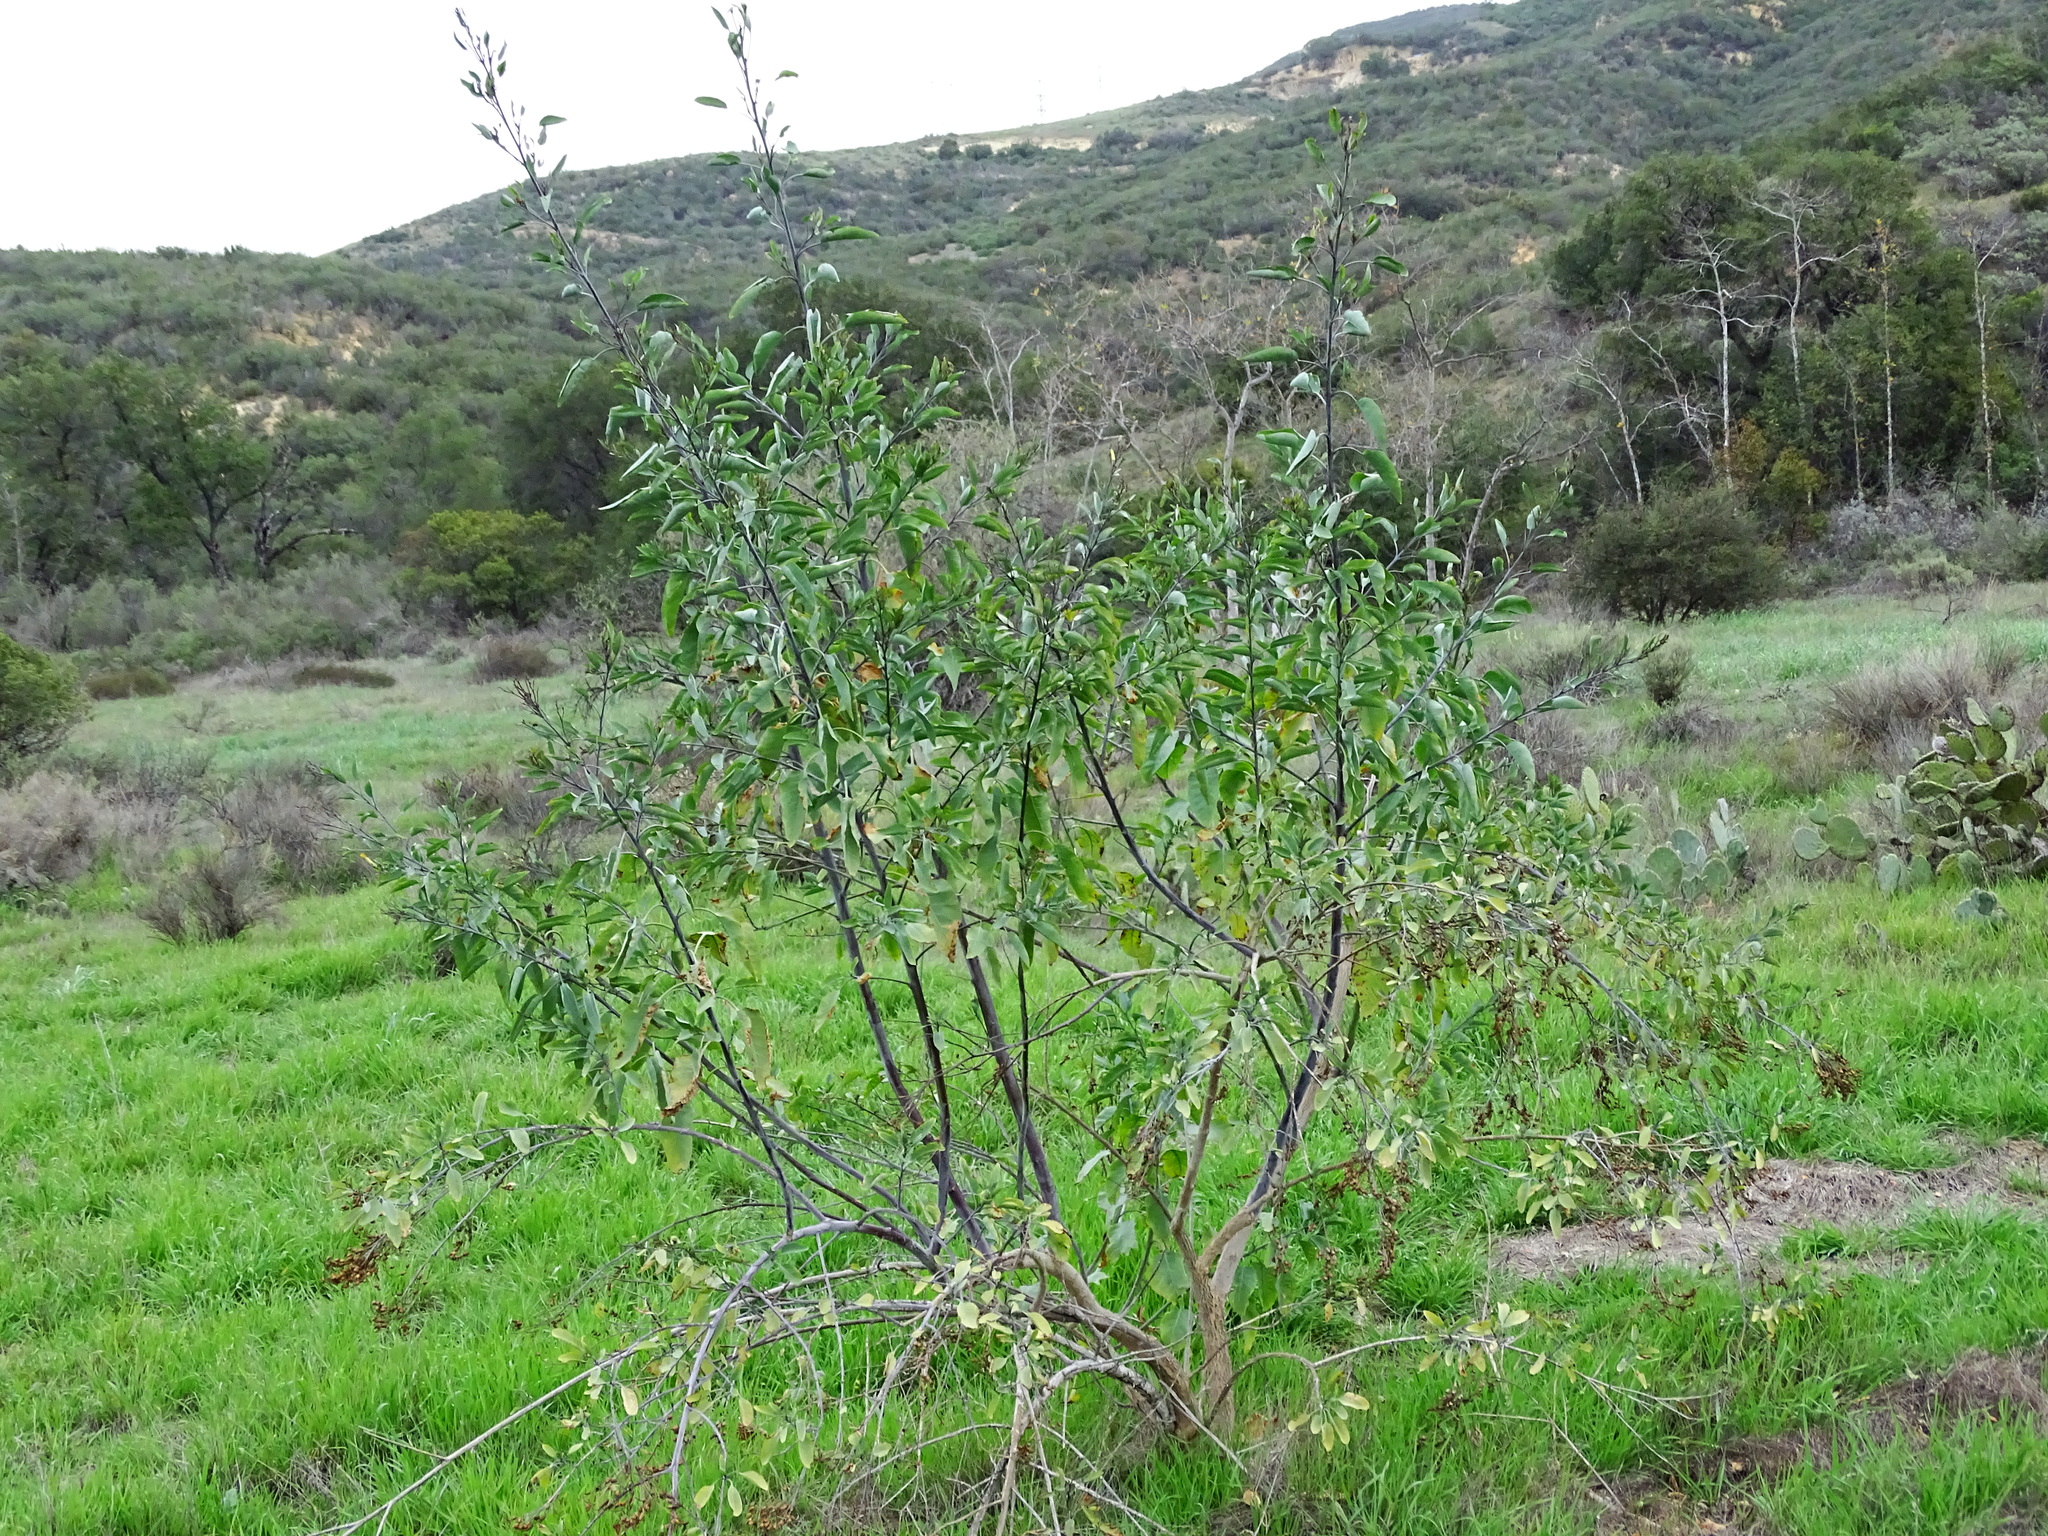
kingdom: Plantae
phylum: Tracheophyta
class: Magnoliopsida
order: Solanales
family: Solanaceae
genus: Nicotiana
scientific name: Nicotiana glauca
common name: Tree tobacco
